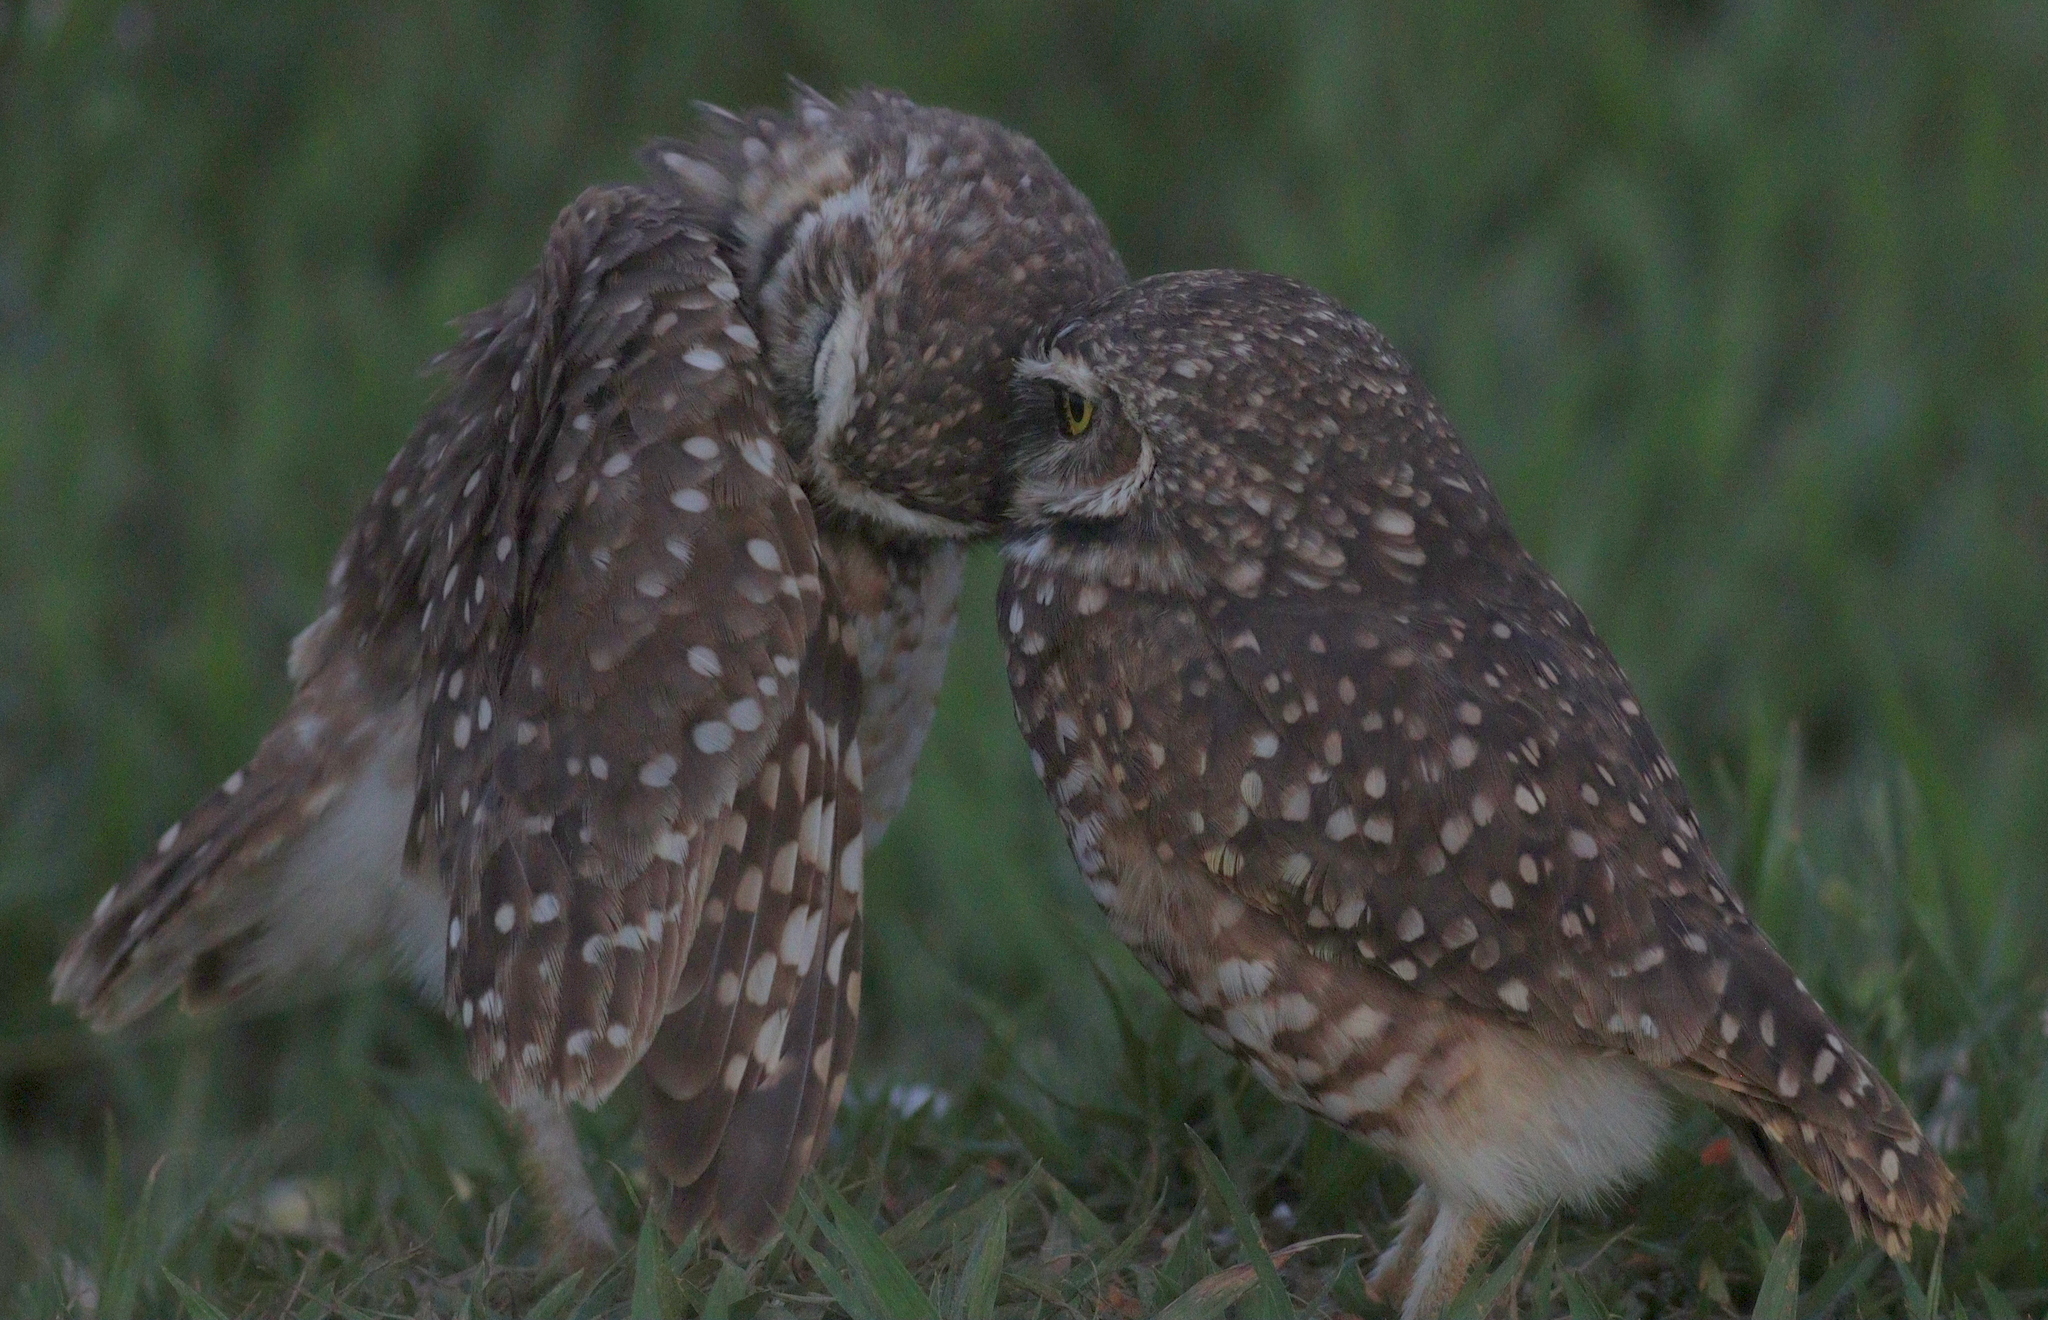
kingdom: Animalia
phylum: Chordata
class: Aves
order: Strigiformes
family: Strigidae
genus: Athene
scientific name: Athene cunicularia
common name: Burrowing owl
